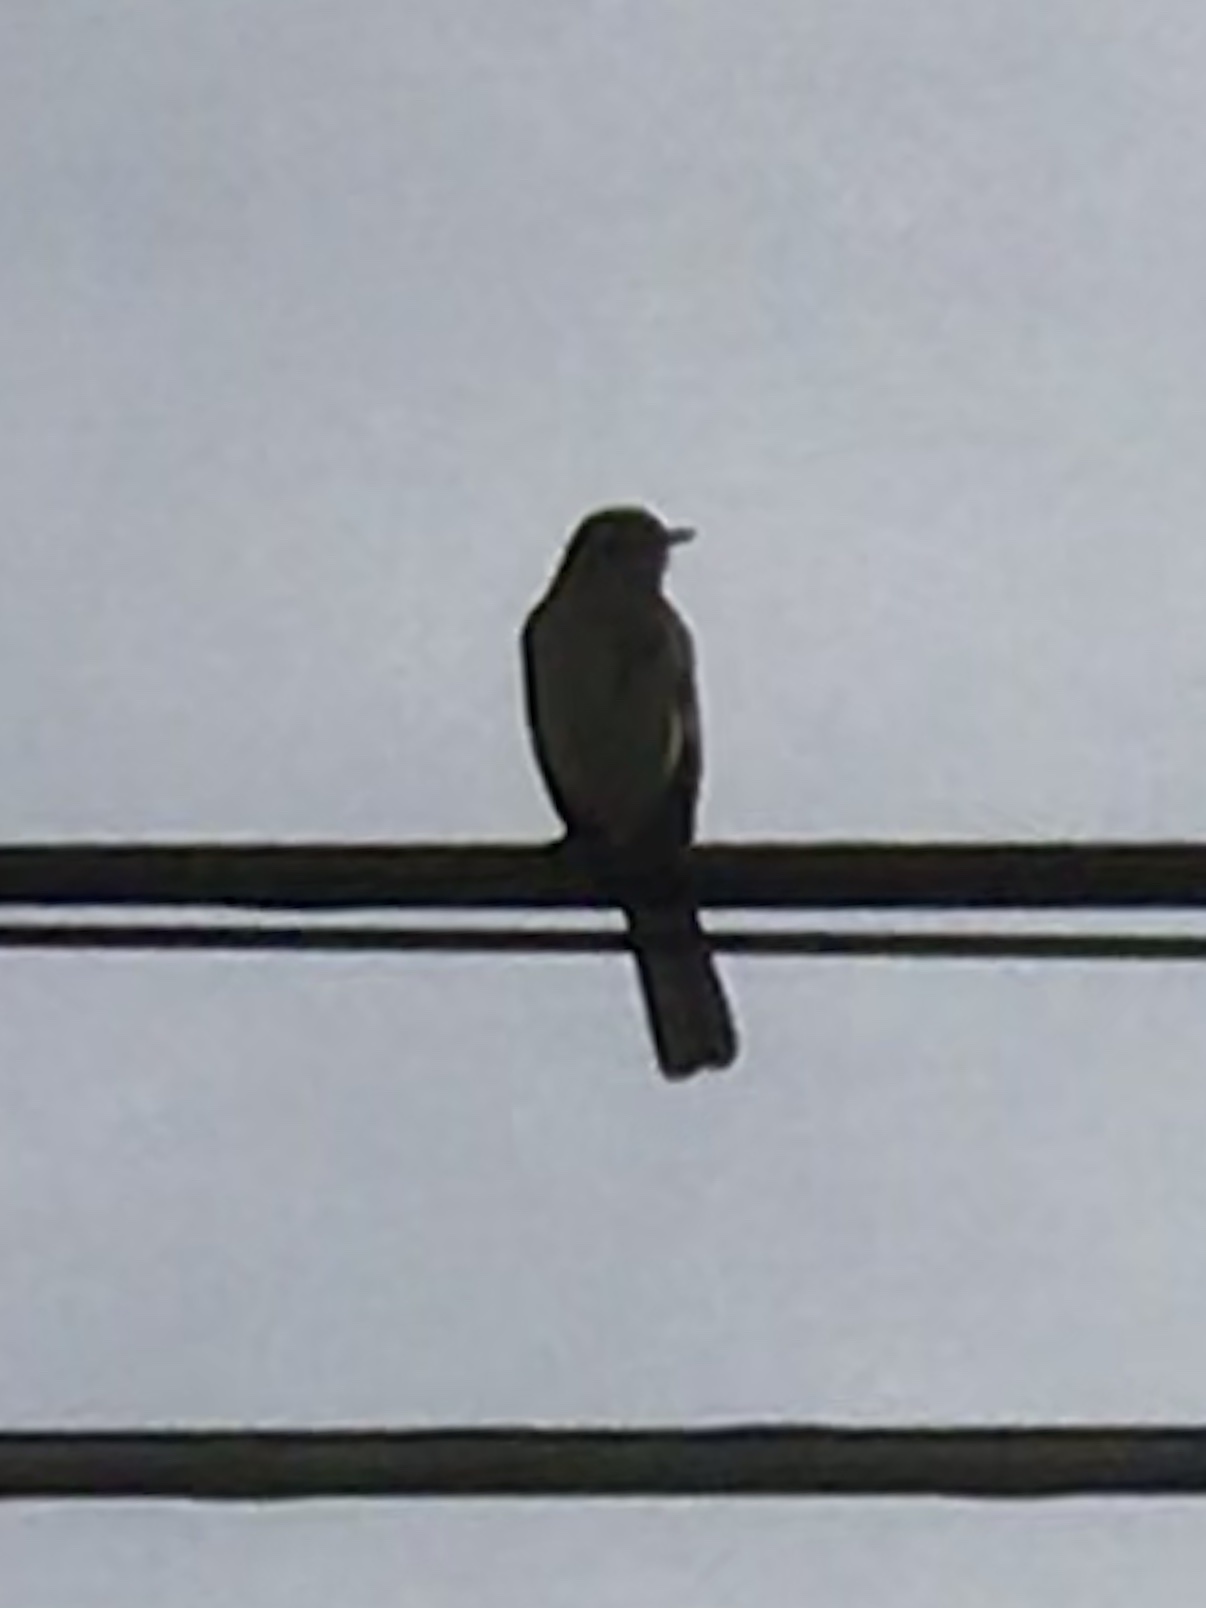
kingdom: Animalia
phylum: Chordata
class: Aves
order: Passeriformes
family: Mimidae
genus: Mimus
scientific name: Mimus polyglottos
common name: Northern mockingbird
